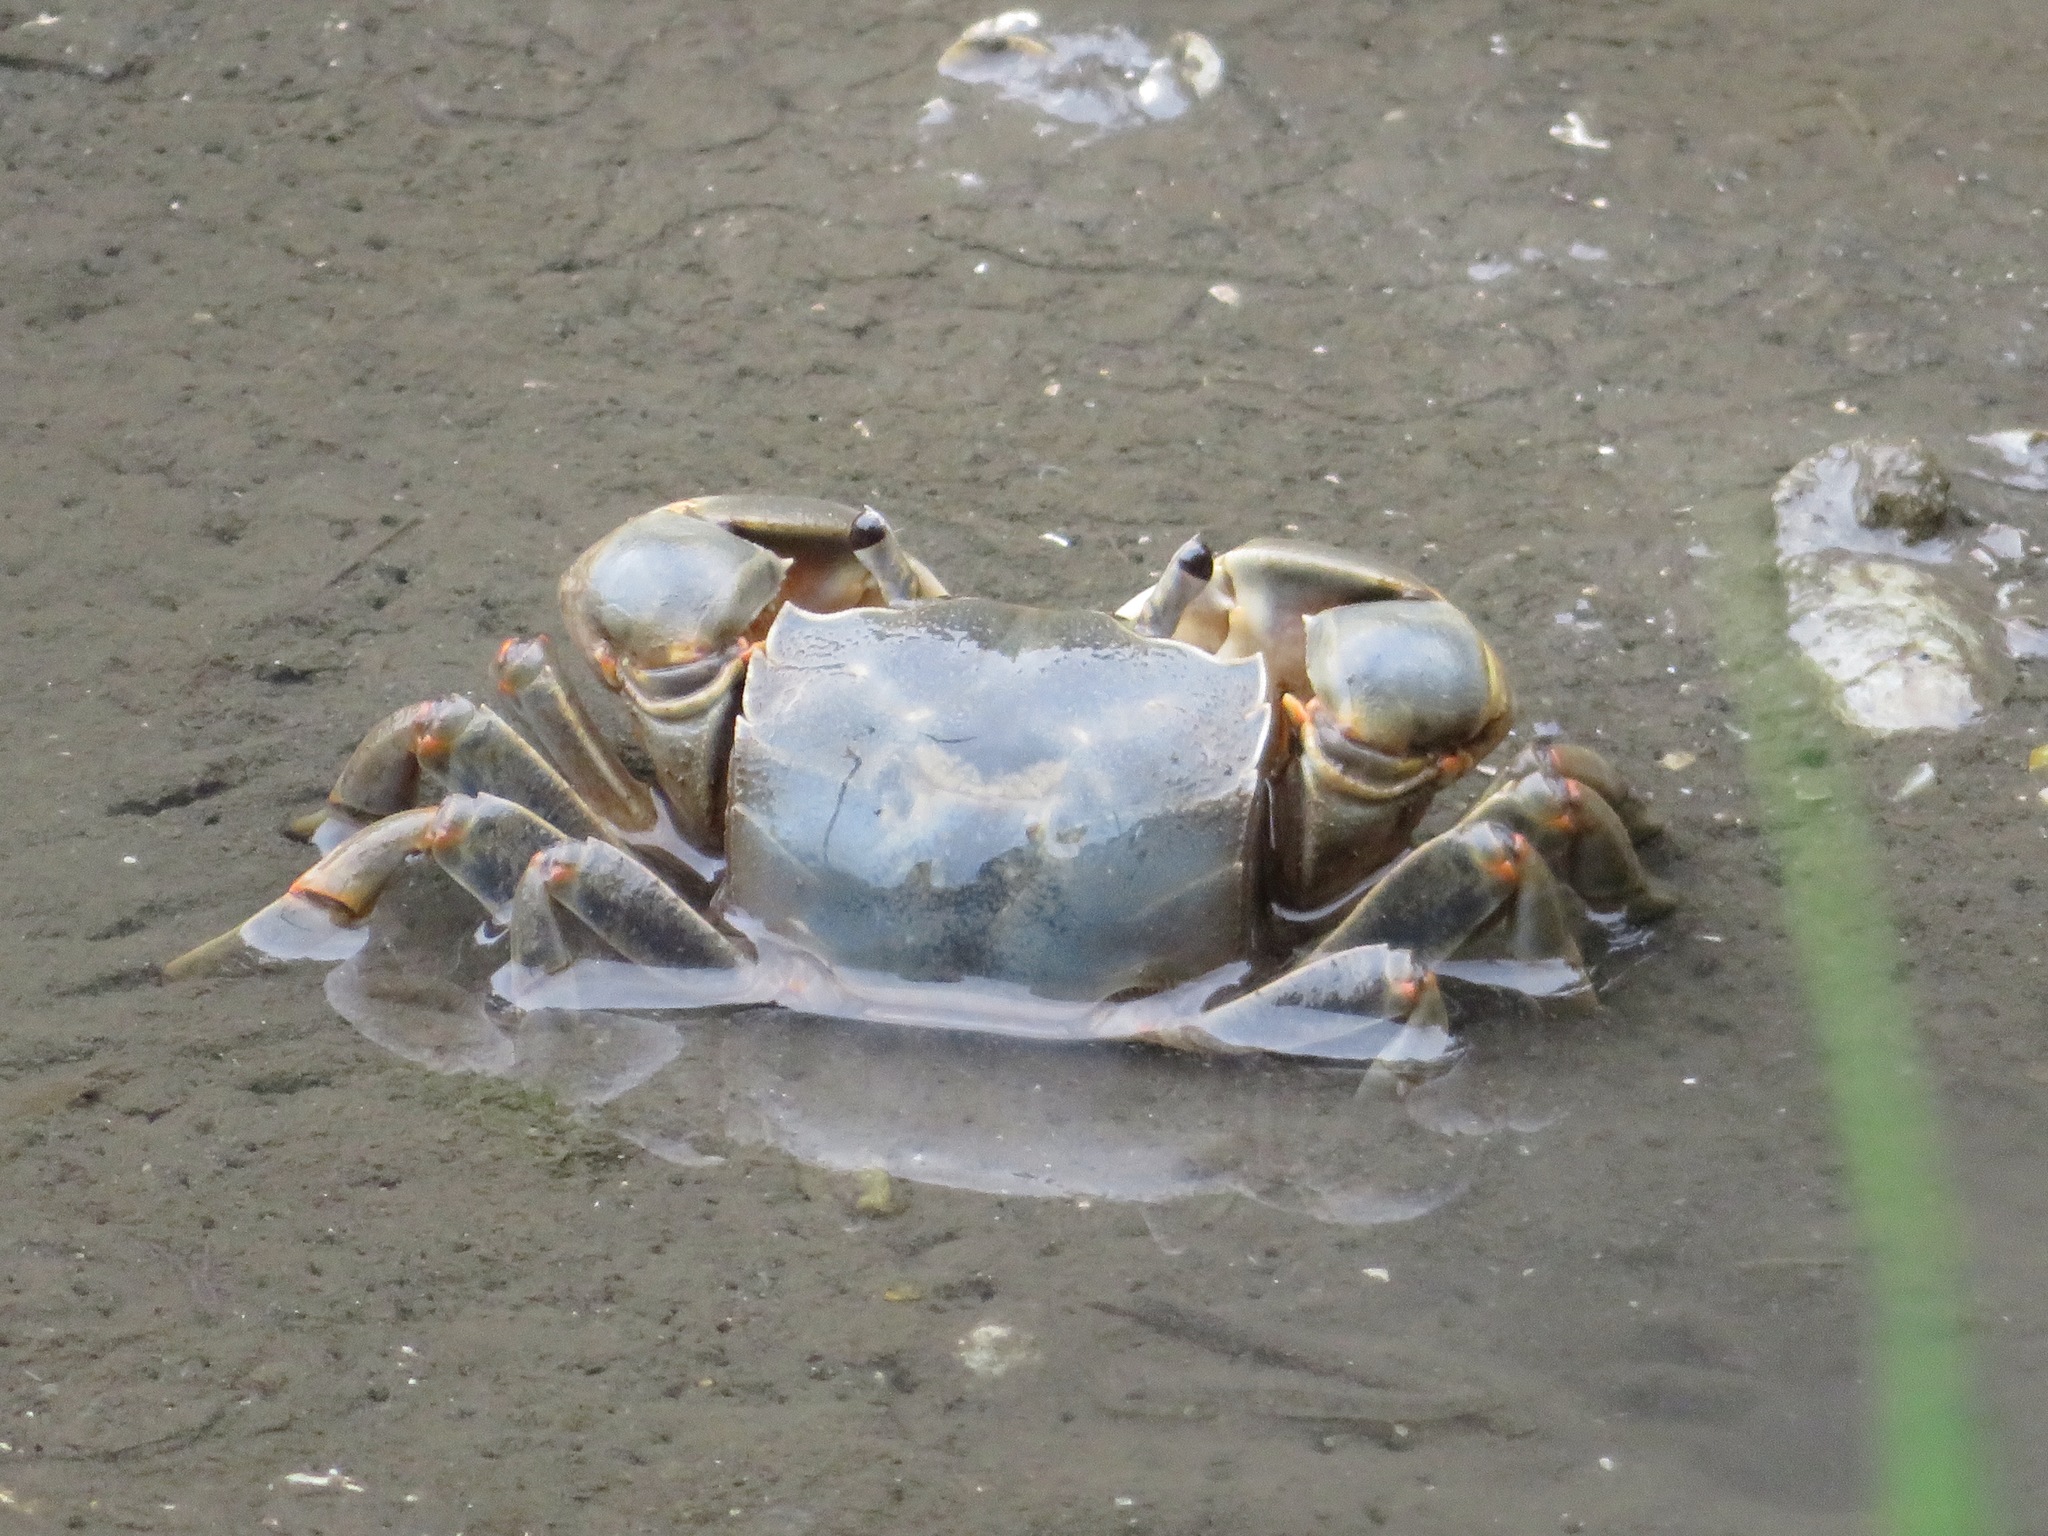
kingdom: Animalia
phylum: Arthropoda
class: Malacostraca
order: Decapoda
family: Varunidae
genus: Helice
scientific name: Helice tridens
